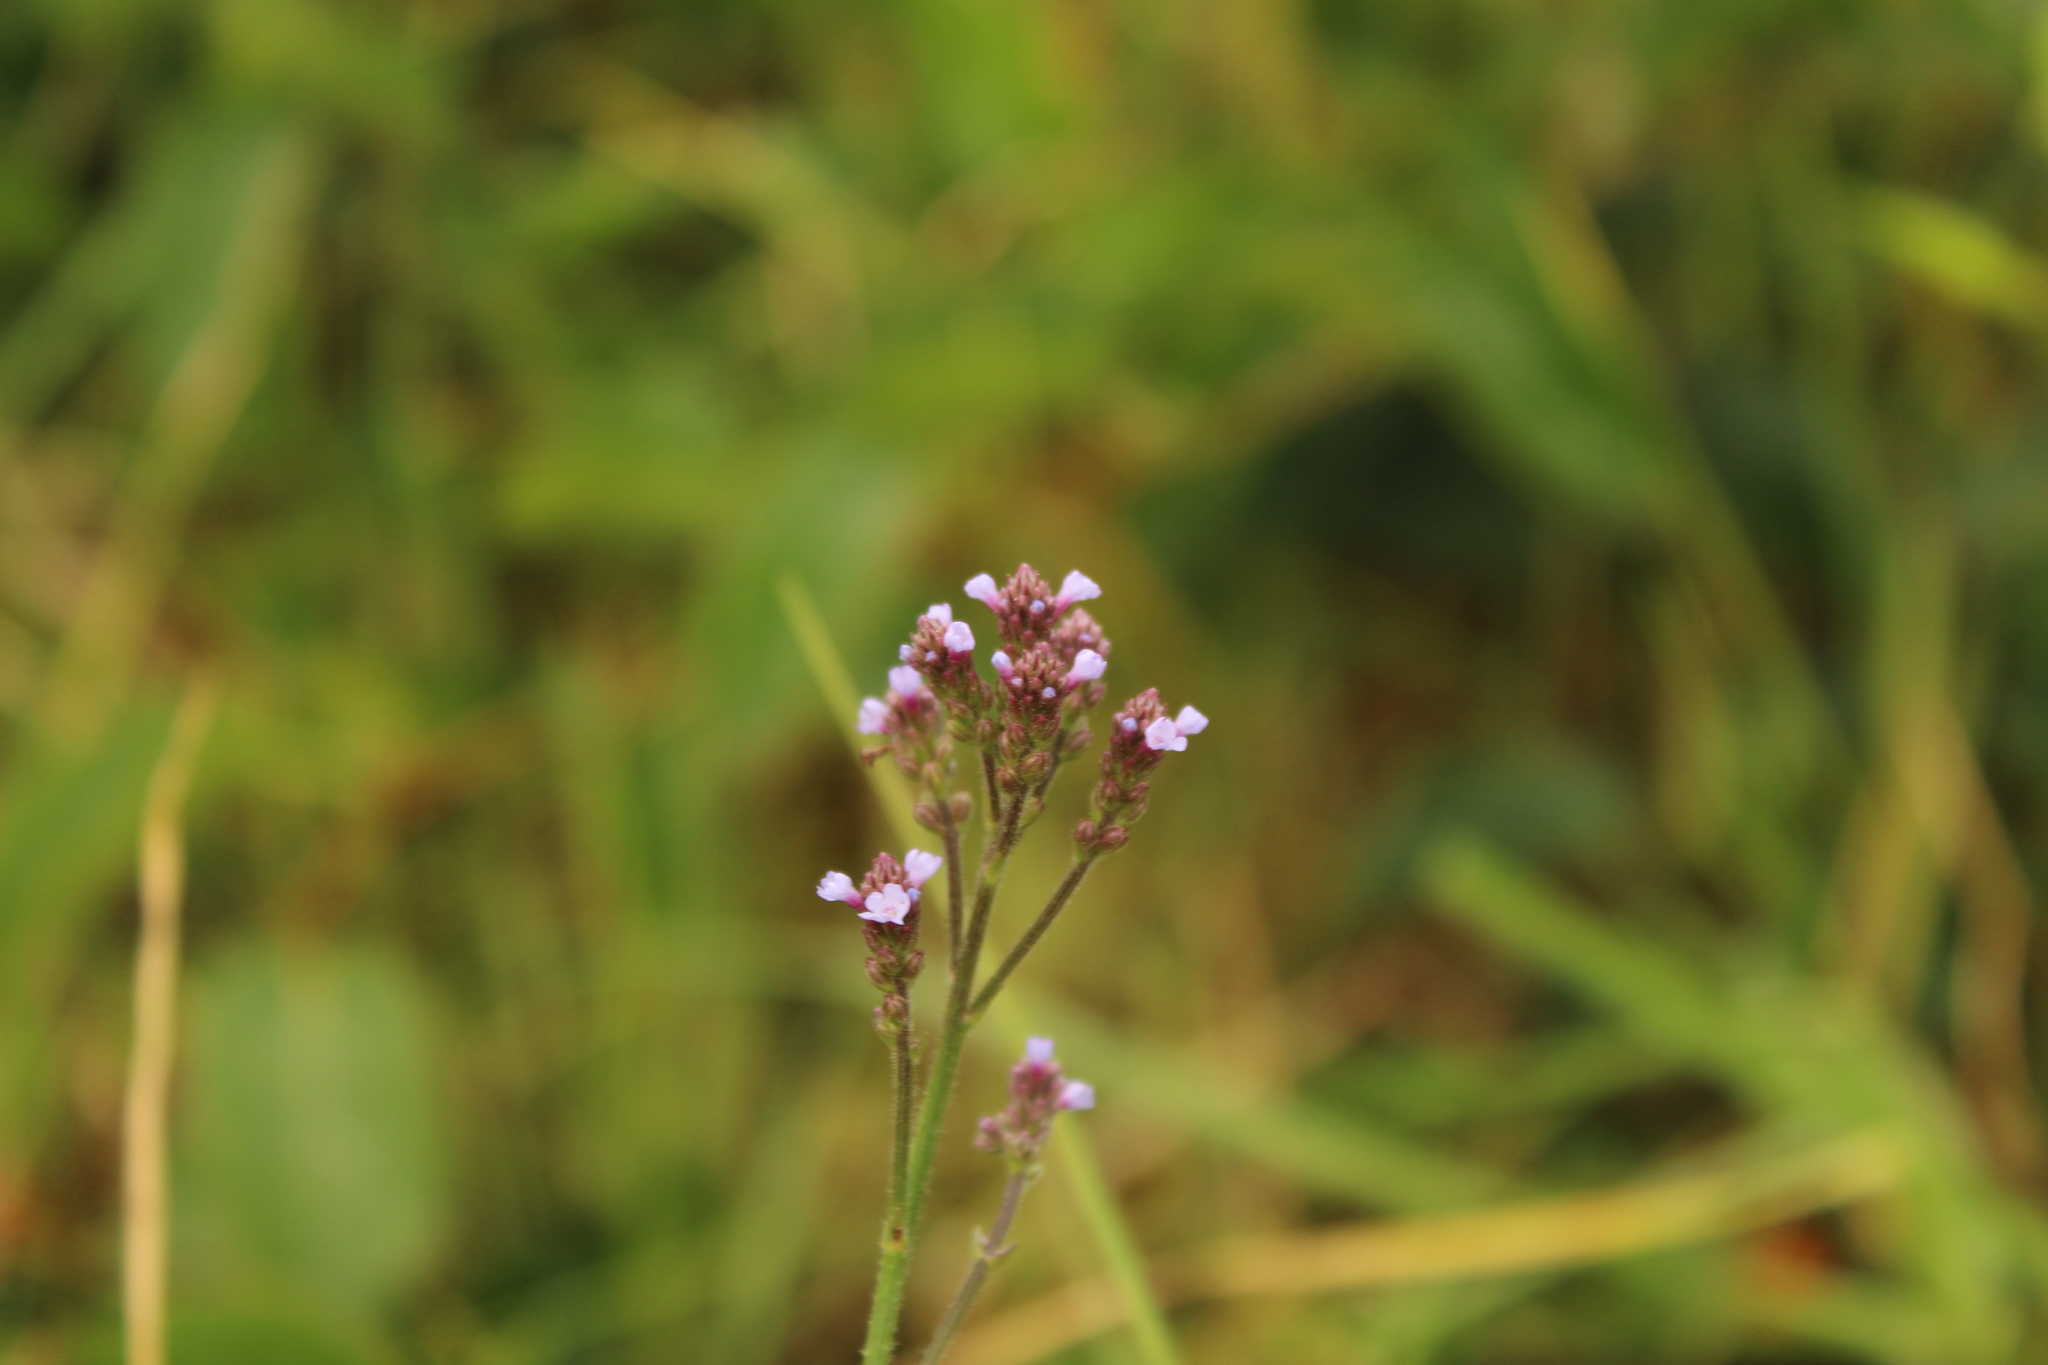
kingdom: Plantae
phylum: Tracheophyta
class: Magnoliopsida
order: Lamiales
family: Verbenaceae
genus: Verbena
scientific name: Verbena litoralis
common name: Seashore vervain
